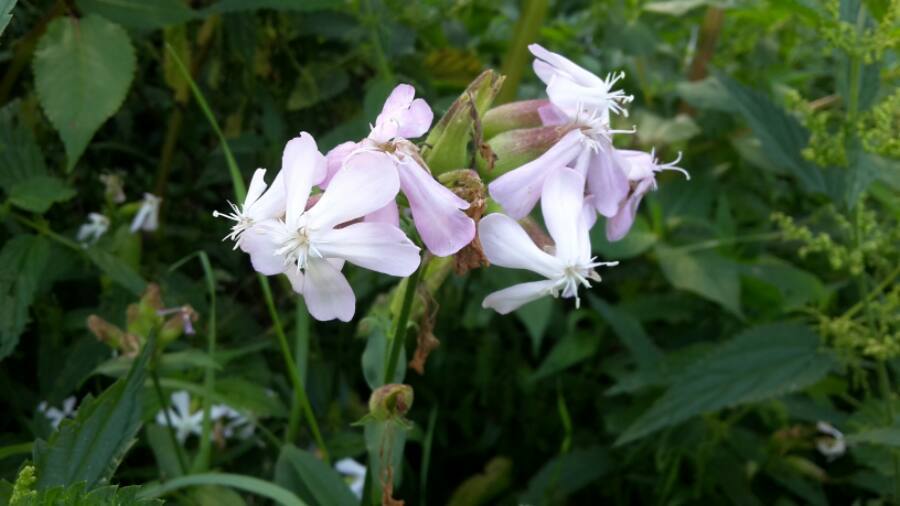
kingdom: Plantae
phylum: Tracheophyta
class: Magnoliopsida
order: Caryophyllales
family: Caryophyllaceae
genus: Saponaria
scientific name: Saponaria officinalis
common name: Soapwort
